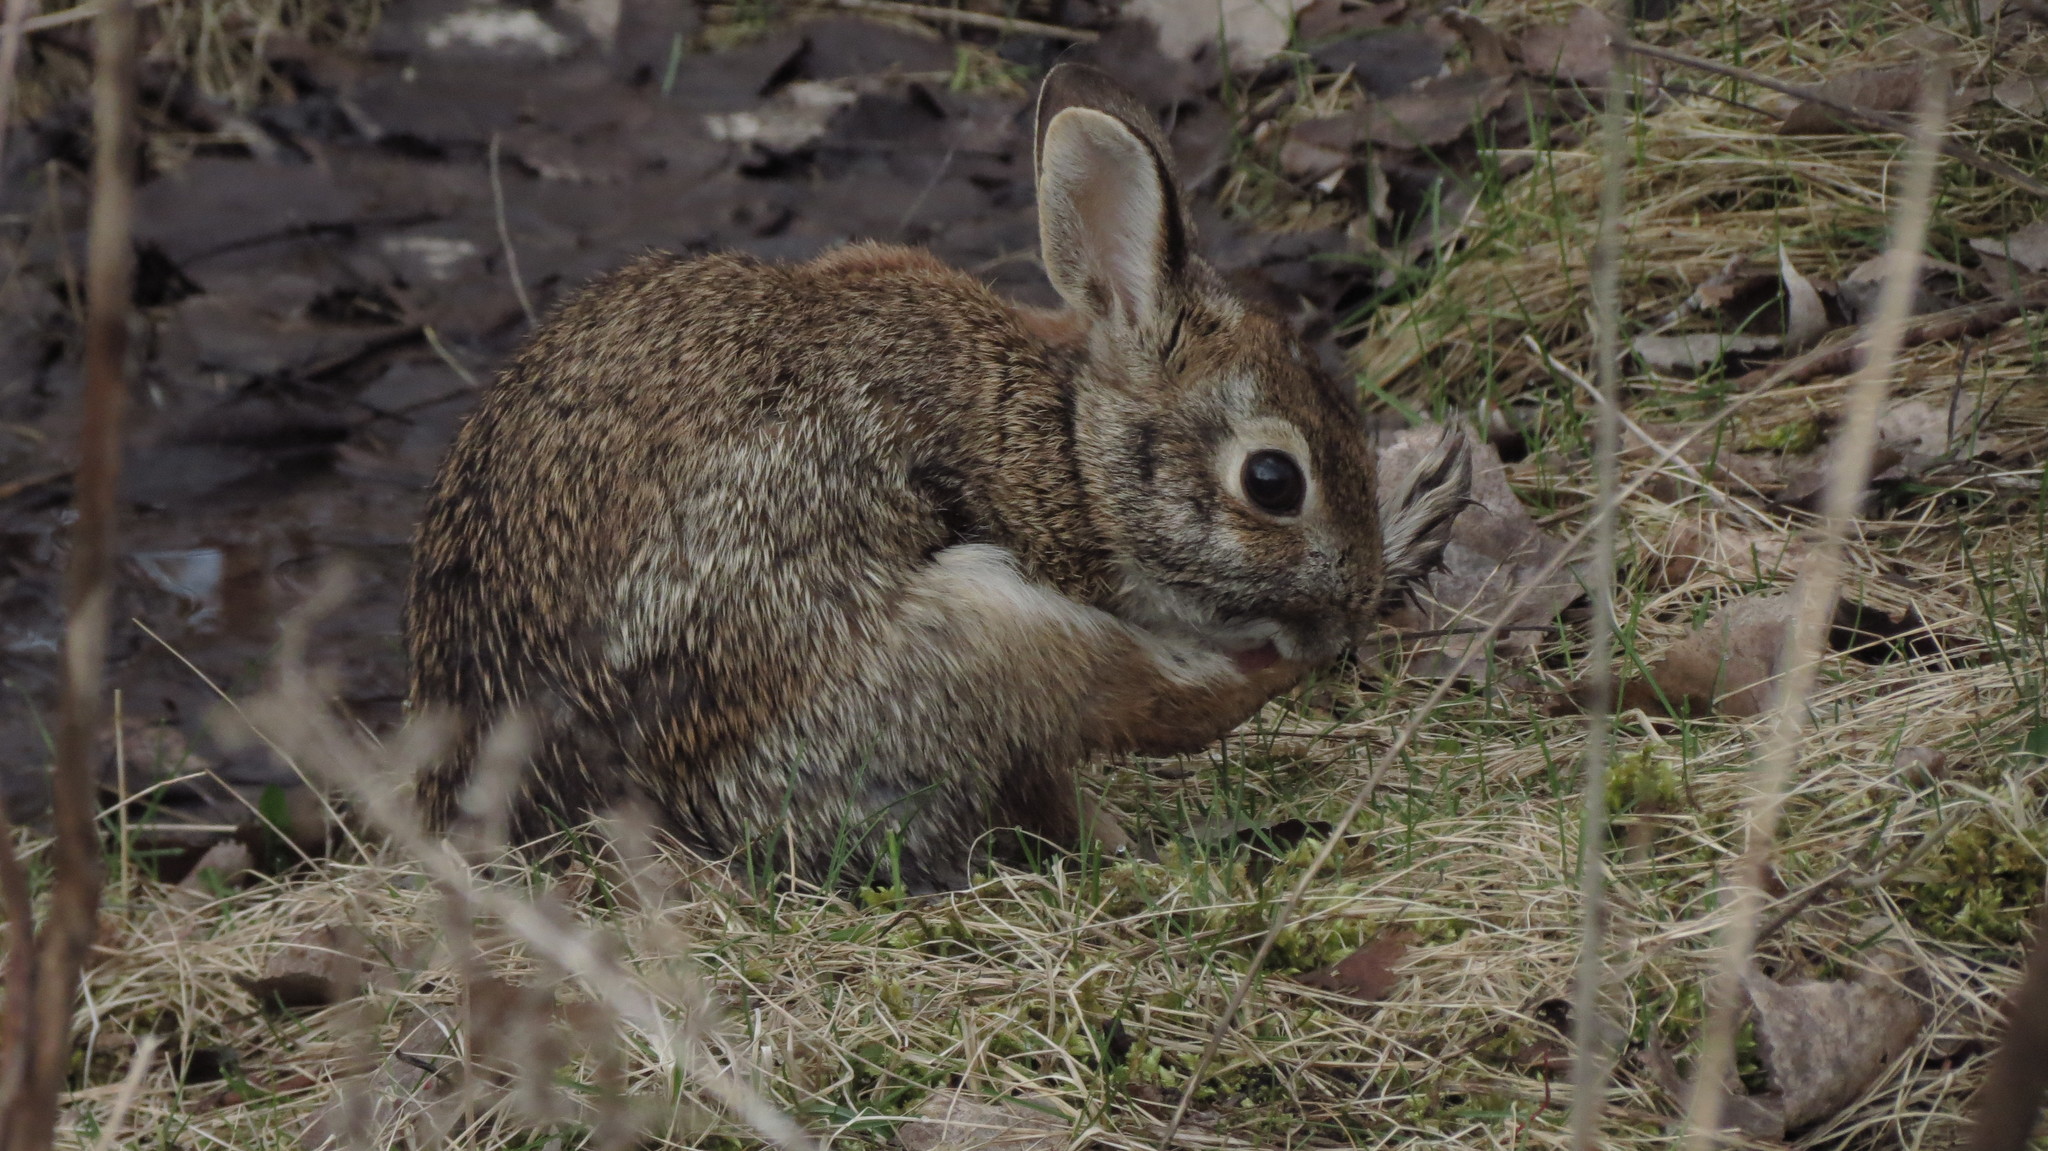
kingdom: Animalia
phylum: Chordata
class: Mammalia
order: Lagomorpha
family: Leporidae
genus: Sylvilagus
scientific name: Sylvilagus floridanus
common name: Eastern cottontail
